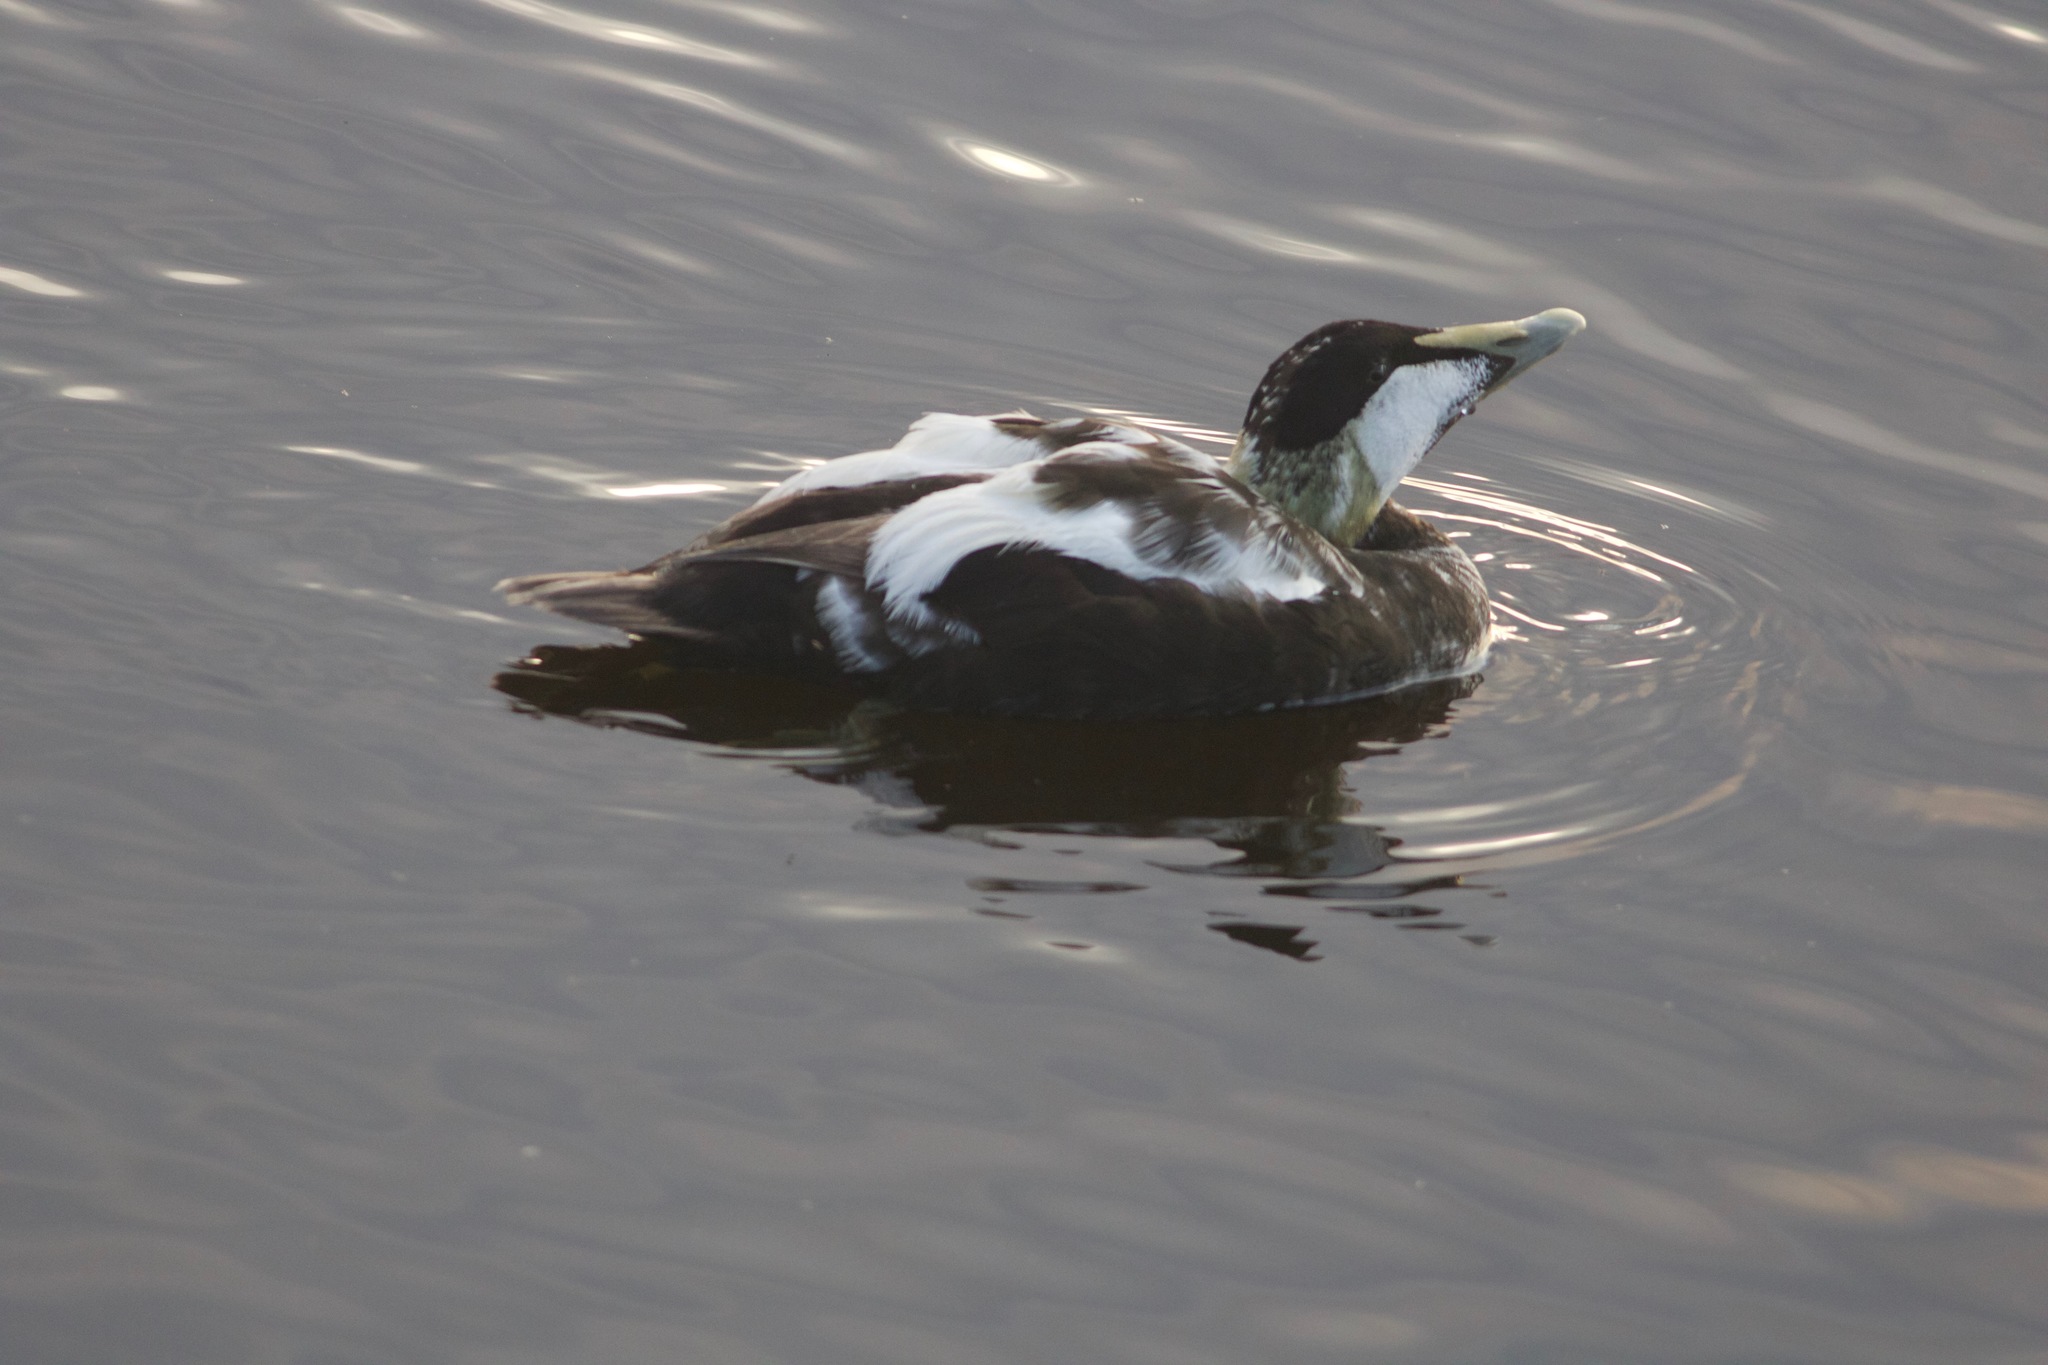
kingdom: Animalia
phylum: Chordata
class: Aves
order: Anseriformes
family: Anatidae
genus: Somateria
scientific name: Somateria mollissima
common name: Common eider
